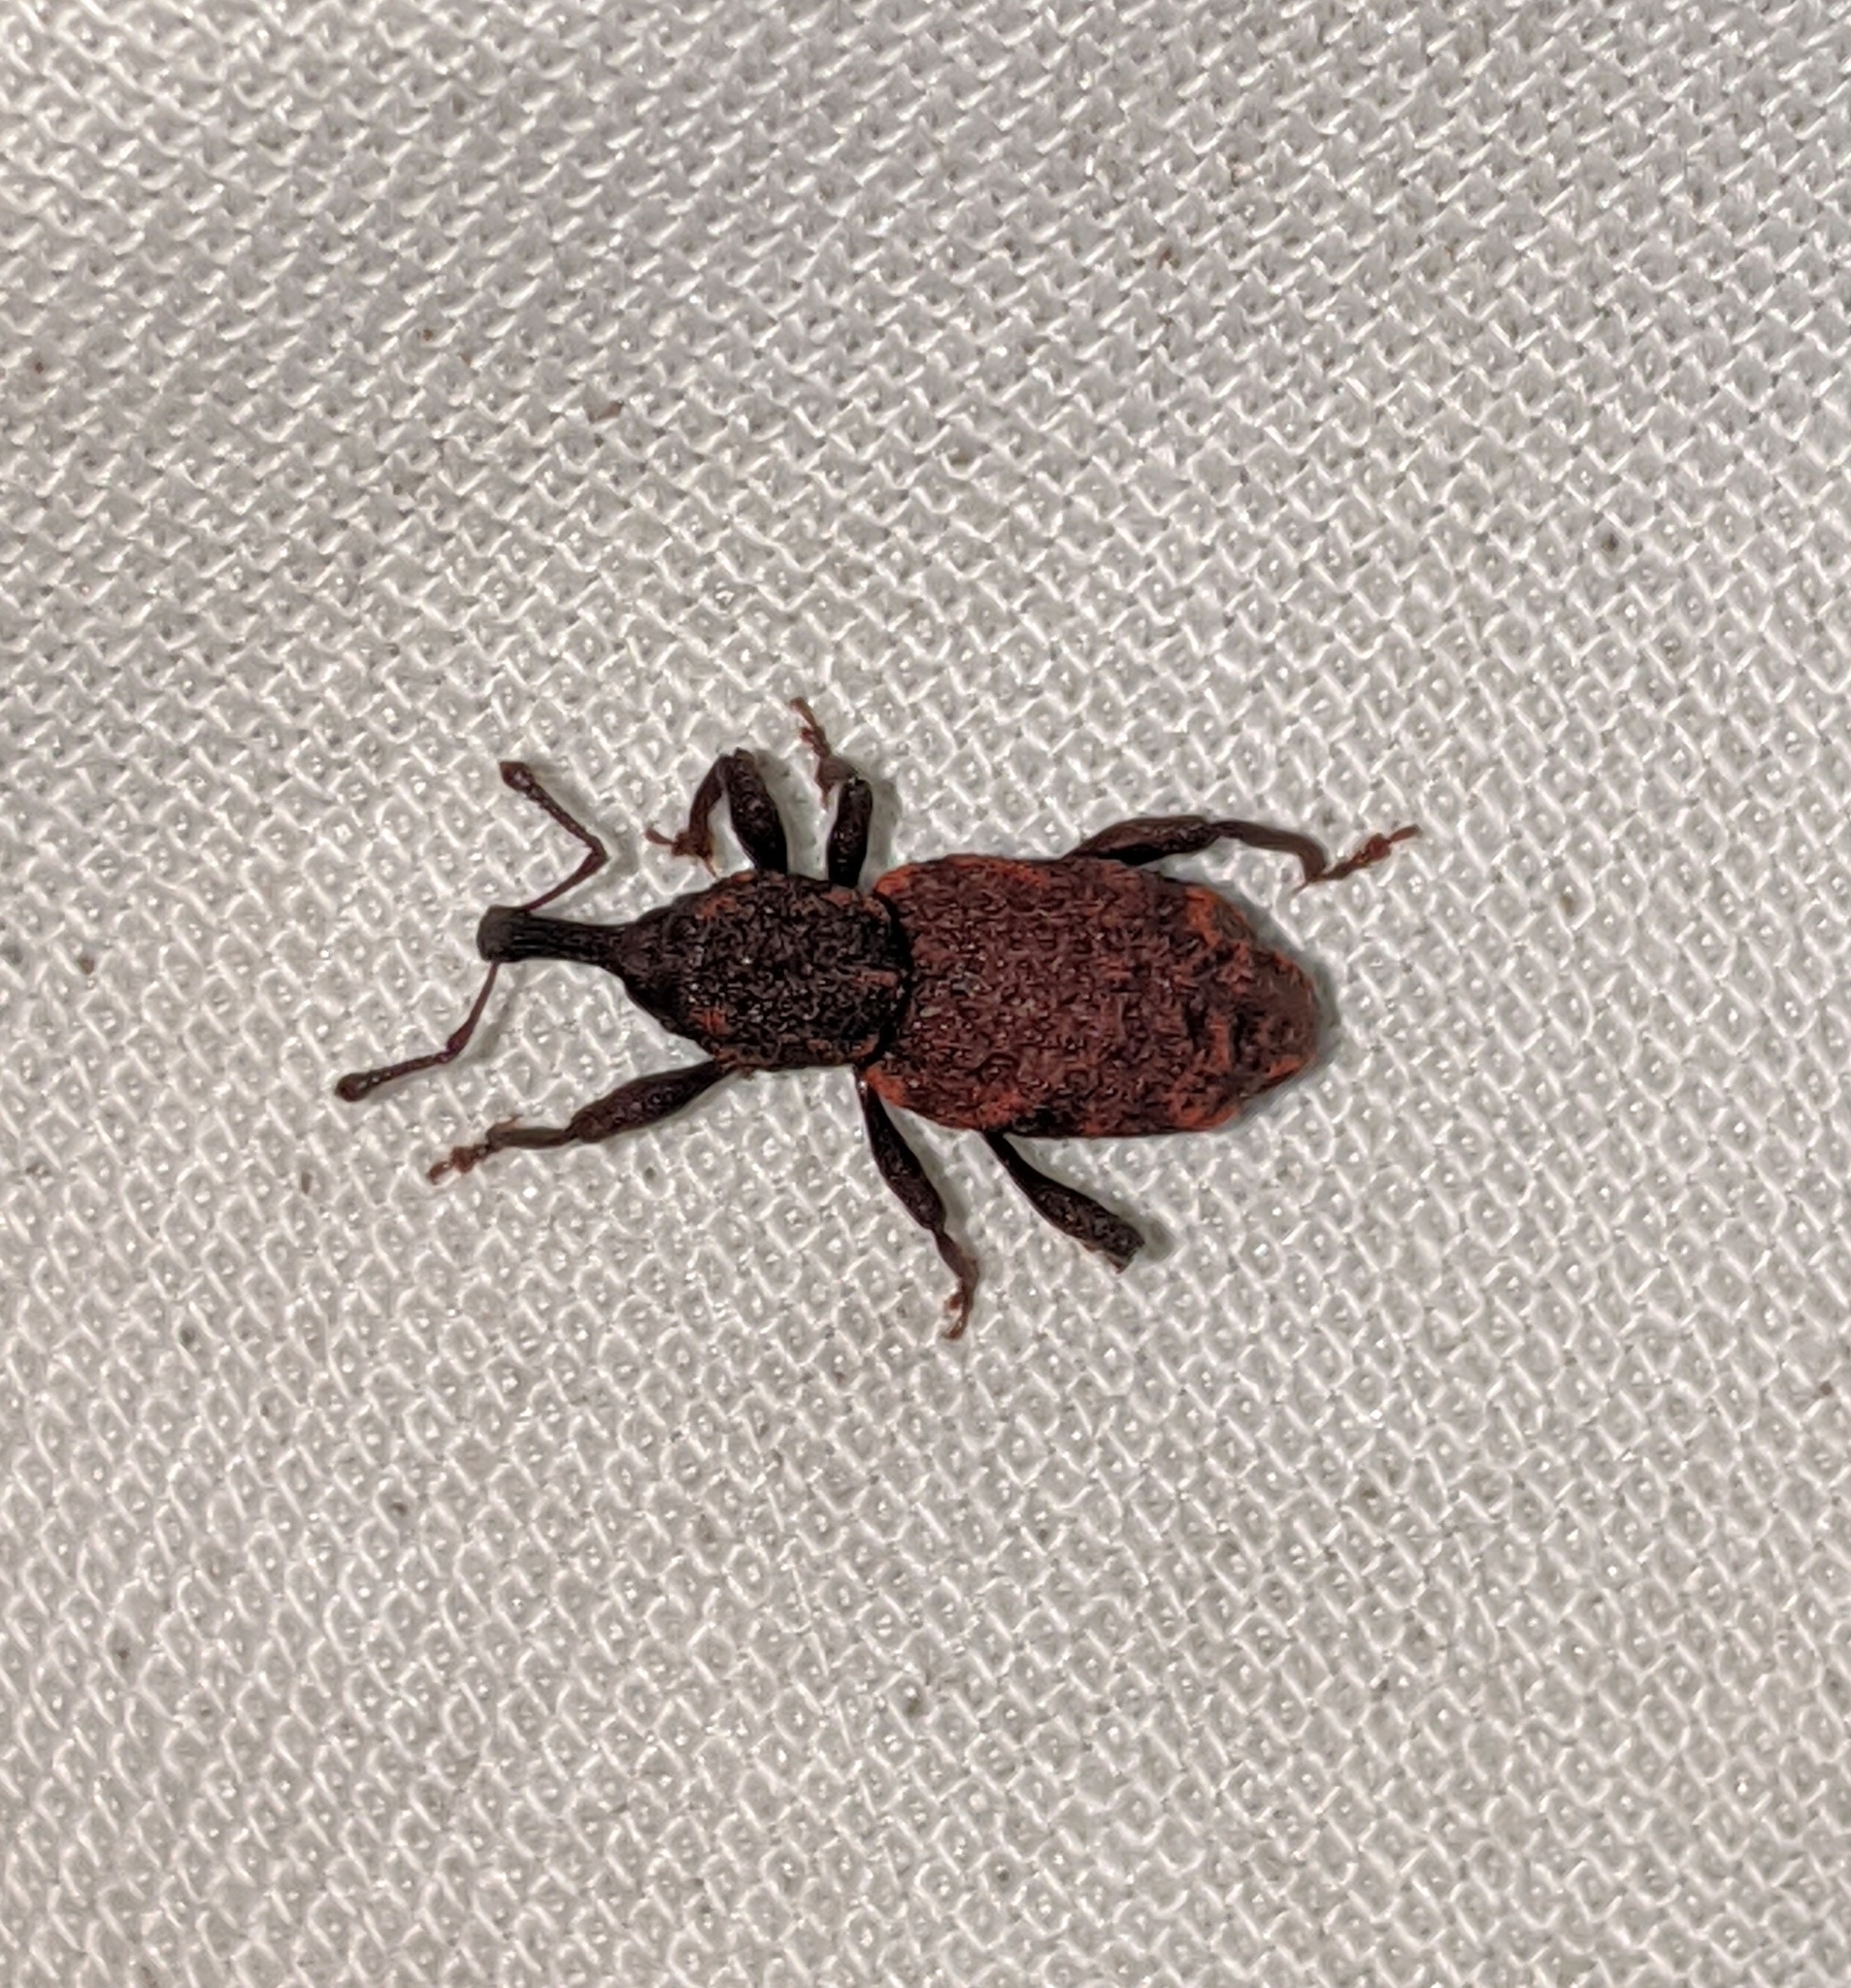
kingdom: Animalia
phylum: Arthropoda
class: Insecta
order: Coleoptera
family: Curculionidae
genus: Steremnius
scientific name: Steremnius carinatus
